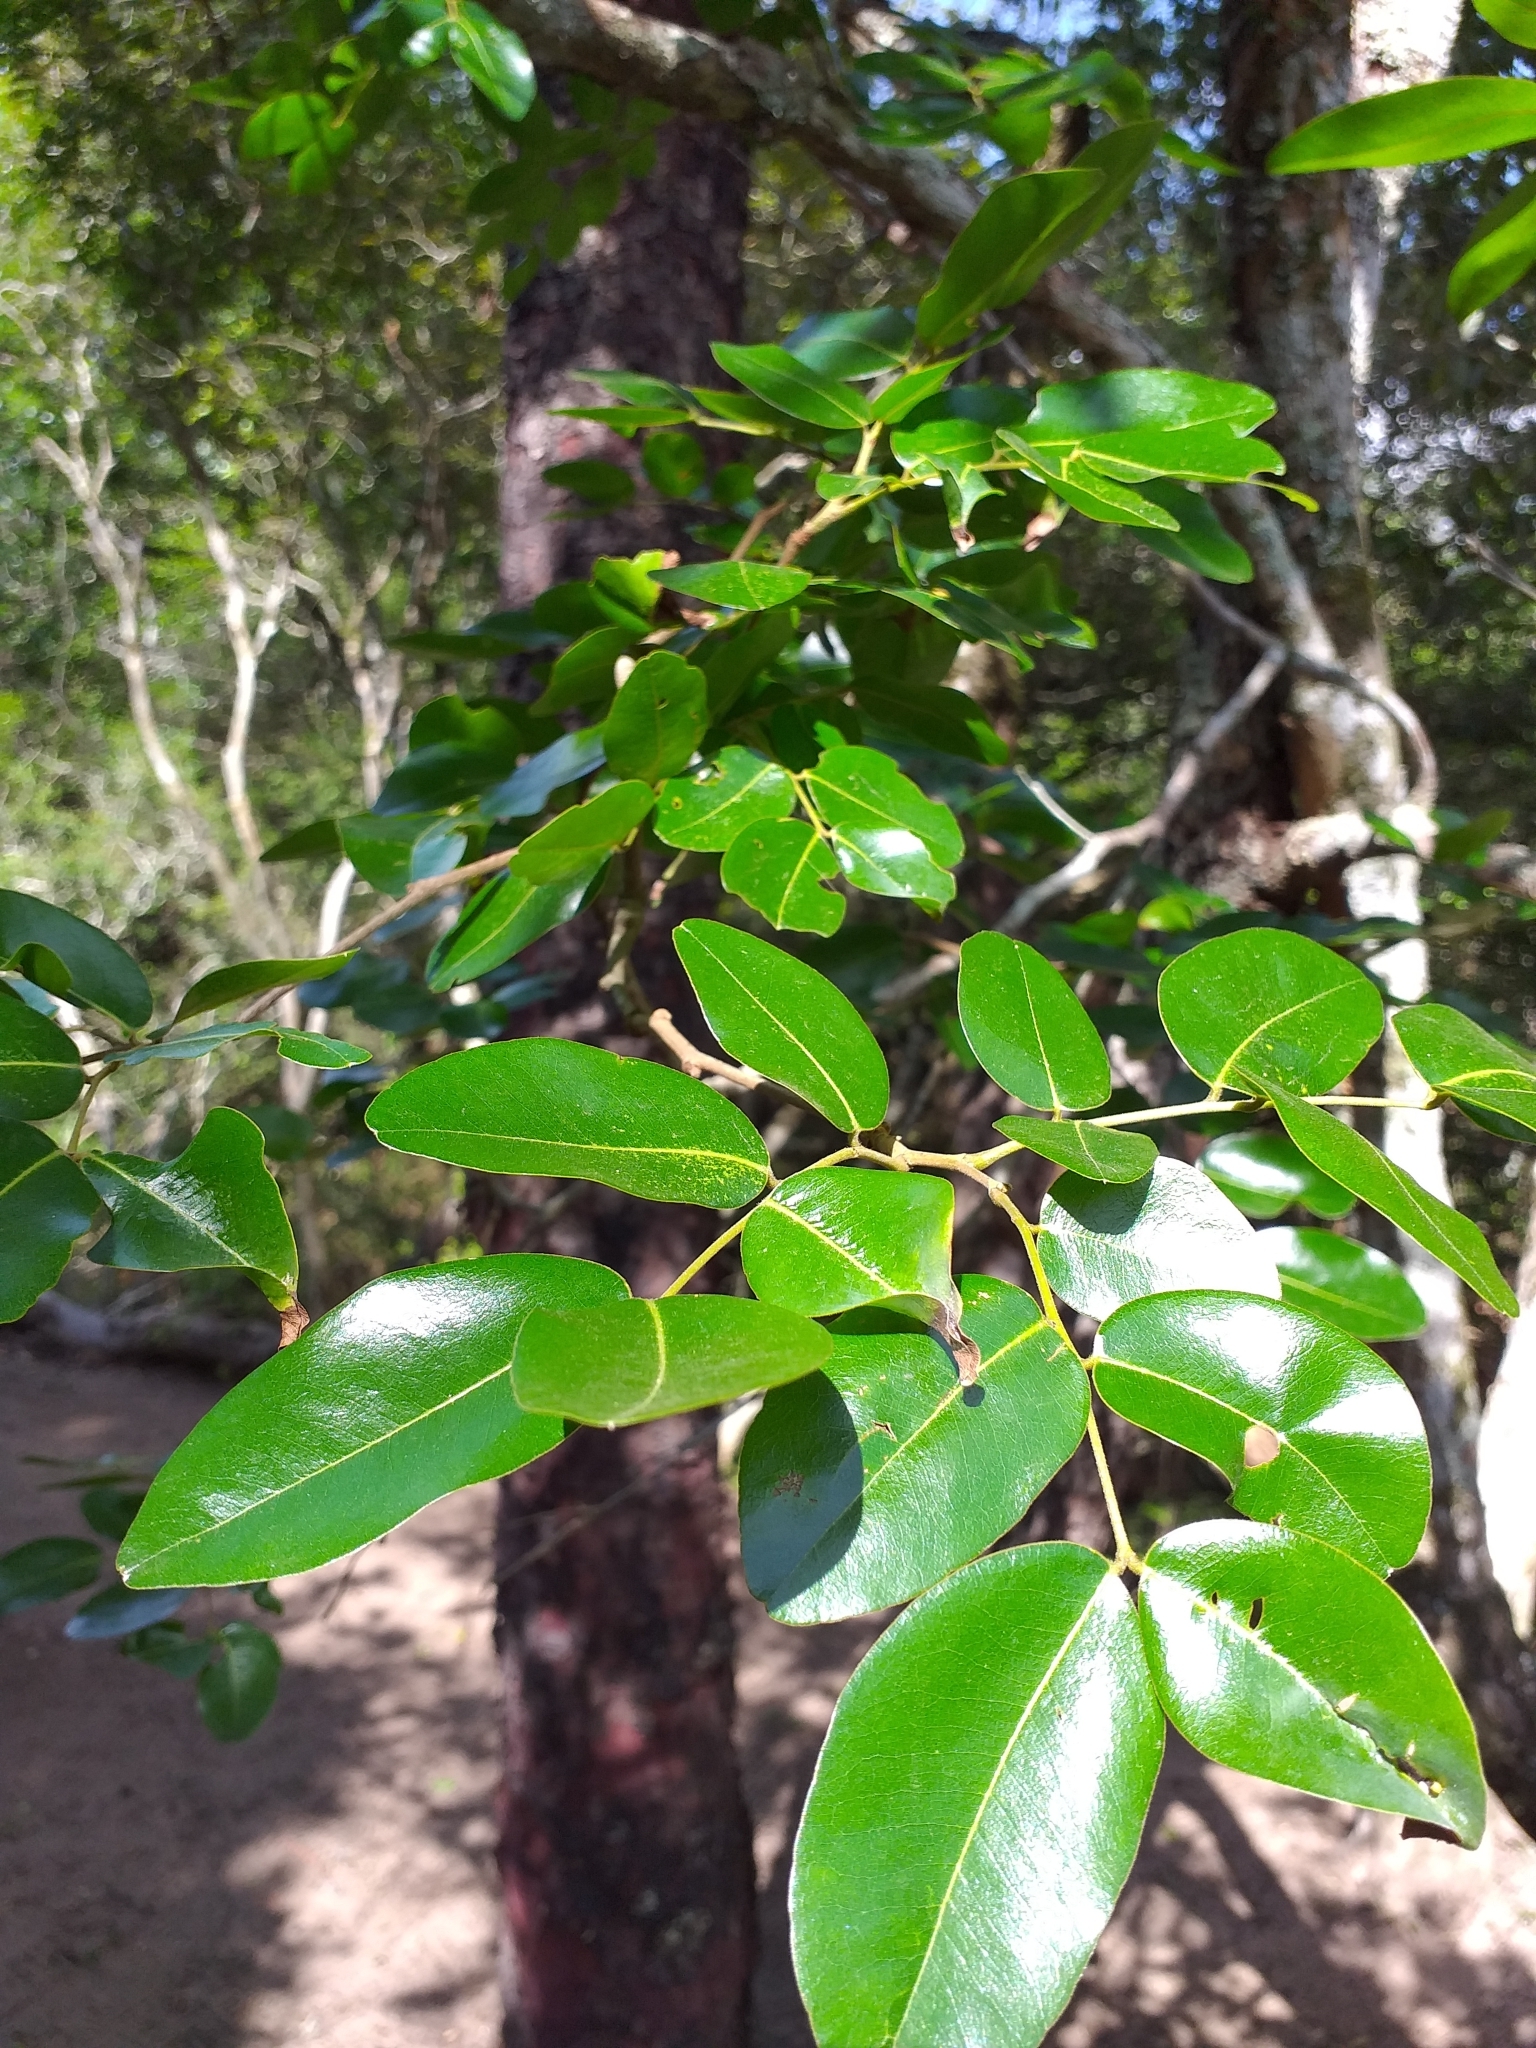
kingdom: Plantae
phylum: Tracheophyta
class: Magnoliopsida
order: Fabales
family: Fabaceae
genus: Copaifera
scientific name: Copaifera langsdorffii
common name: Brazilian diesel tree
